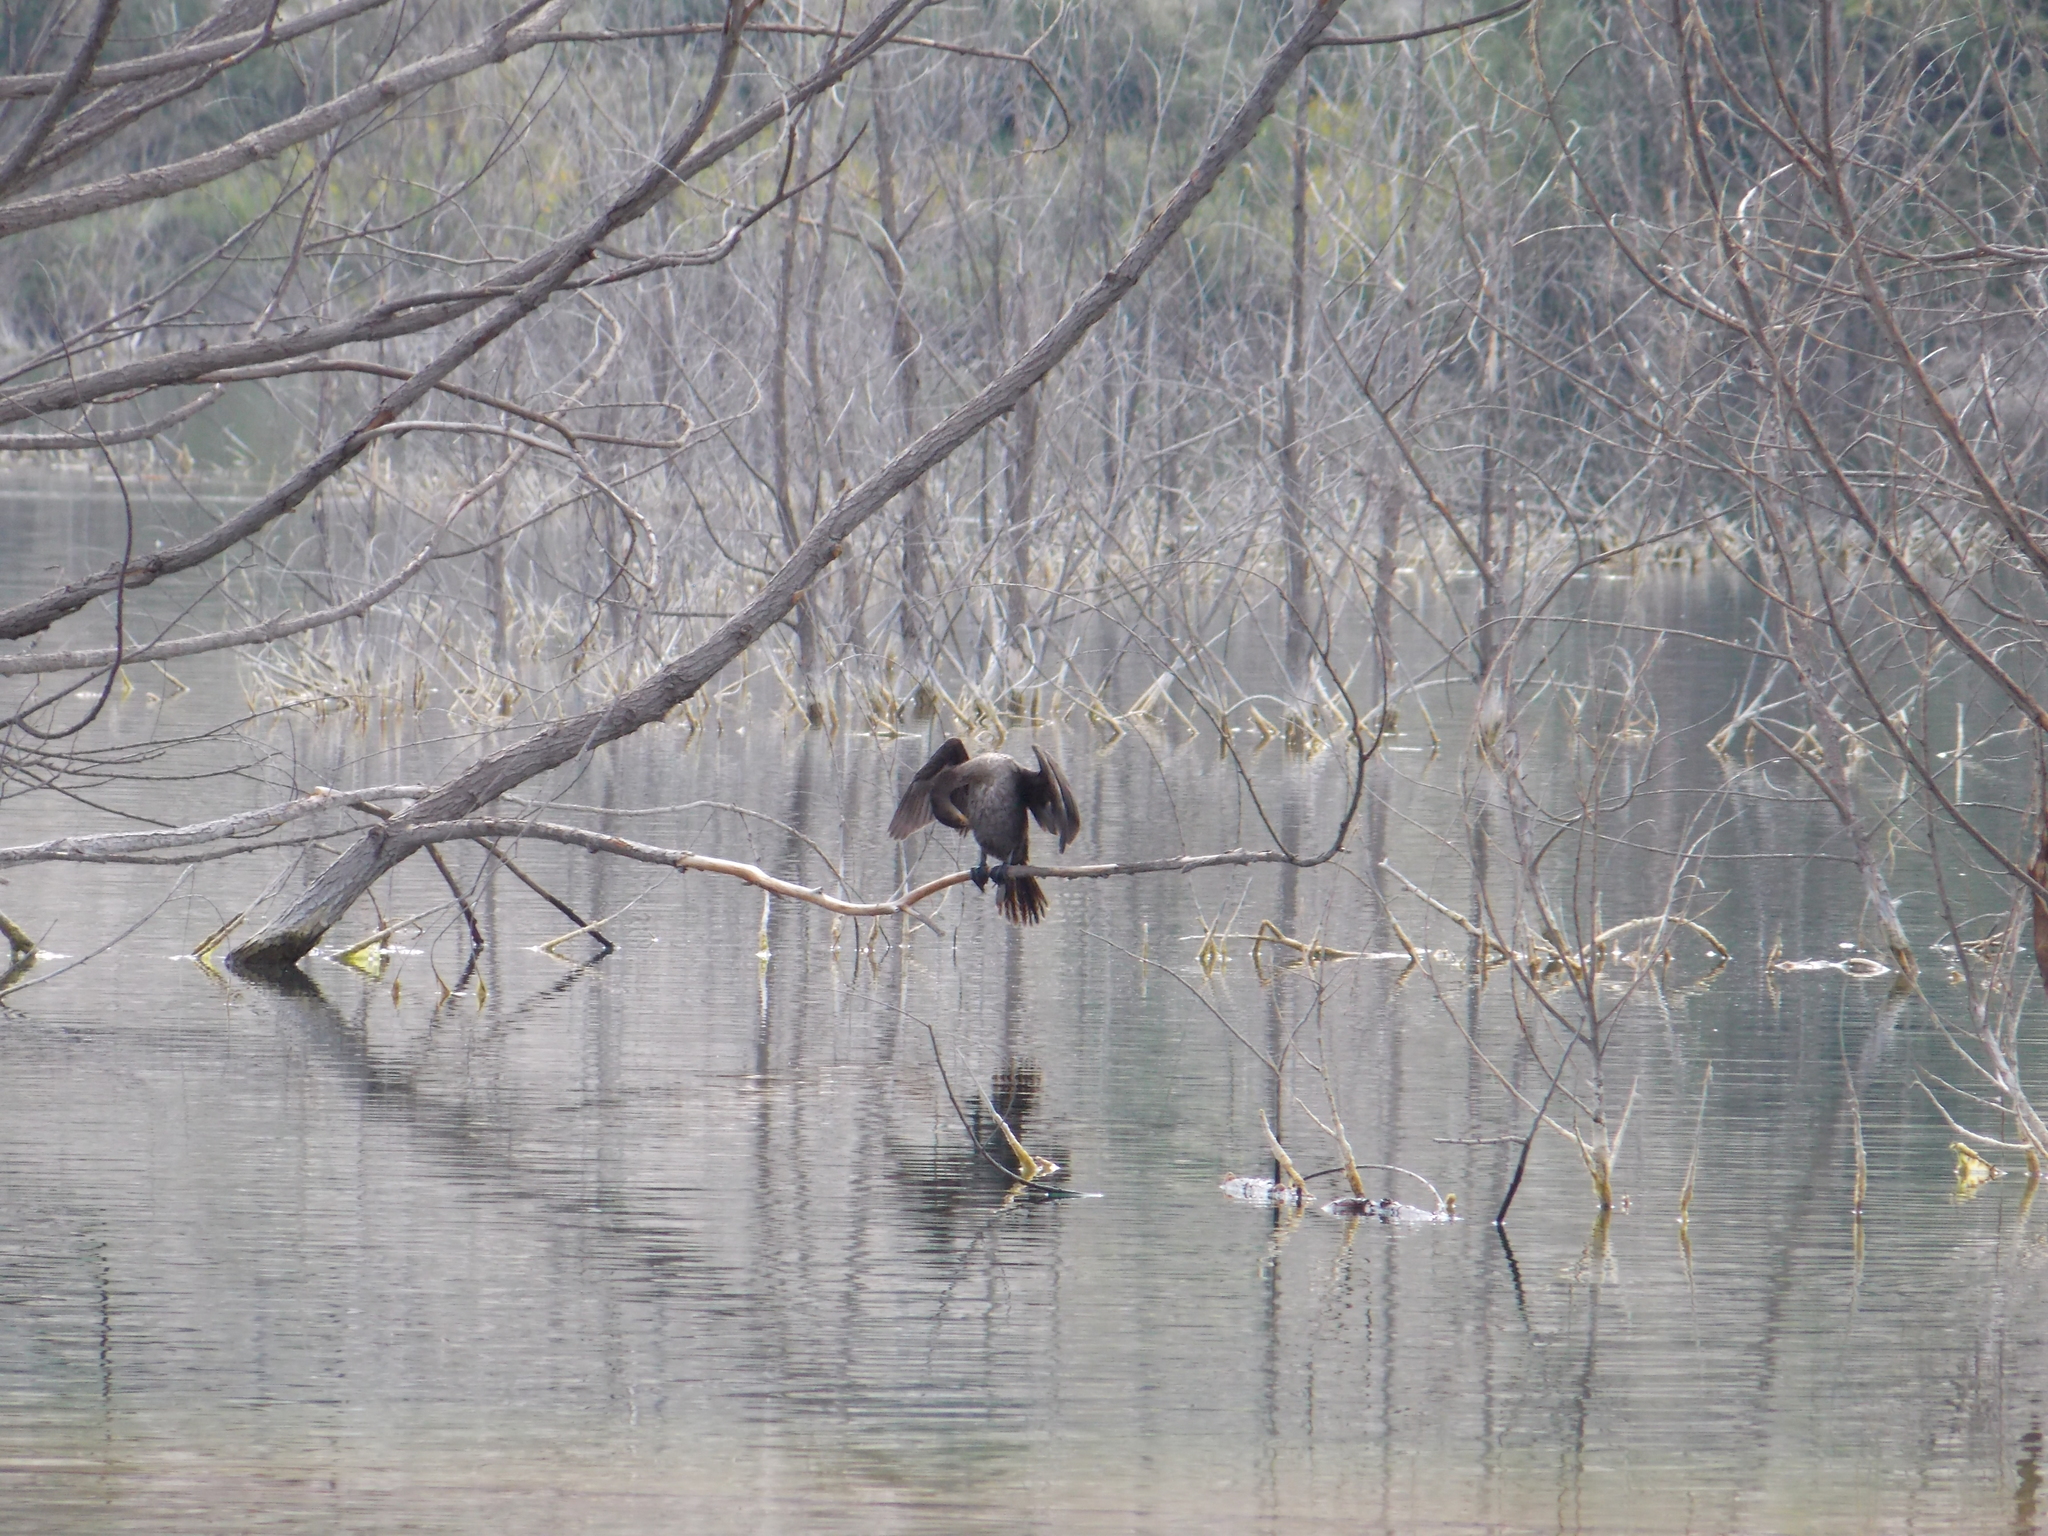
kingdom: Animalia
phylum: Chordata
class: Aves
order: Suliformes
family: Phalacrocoracidae
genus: Phalacrocorax
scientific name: Phalacrocorax auritus
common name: Double-crested cormorant
